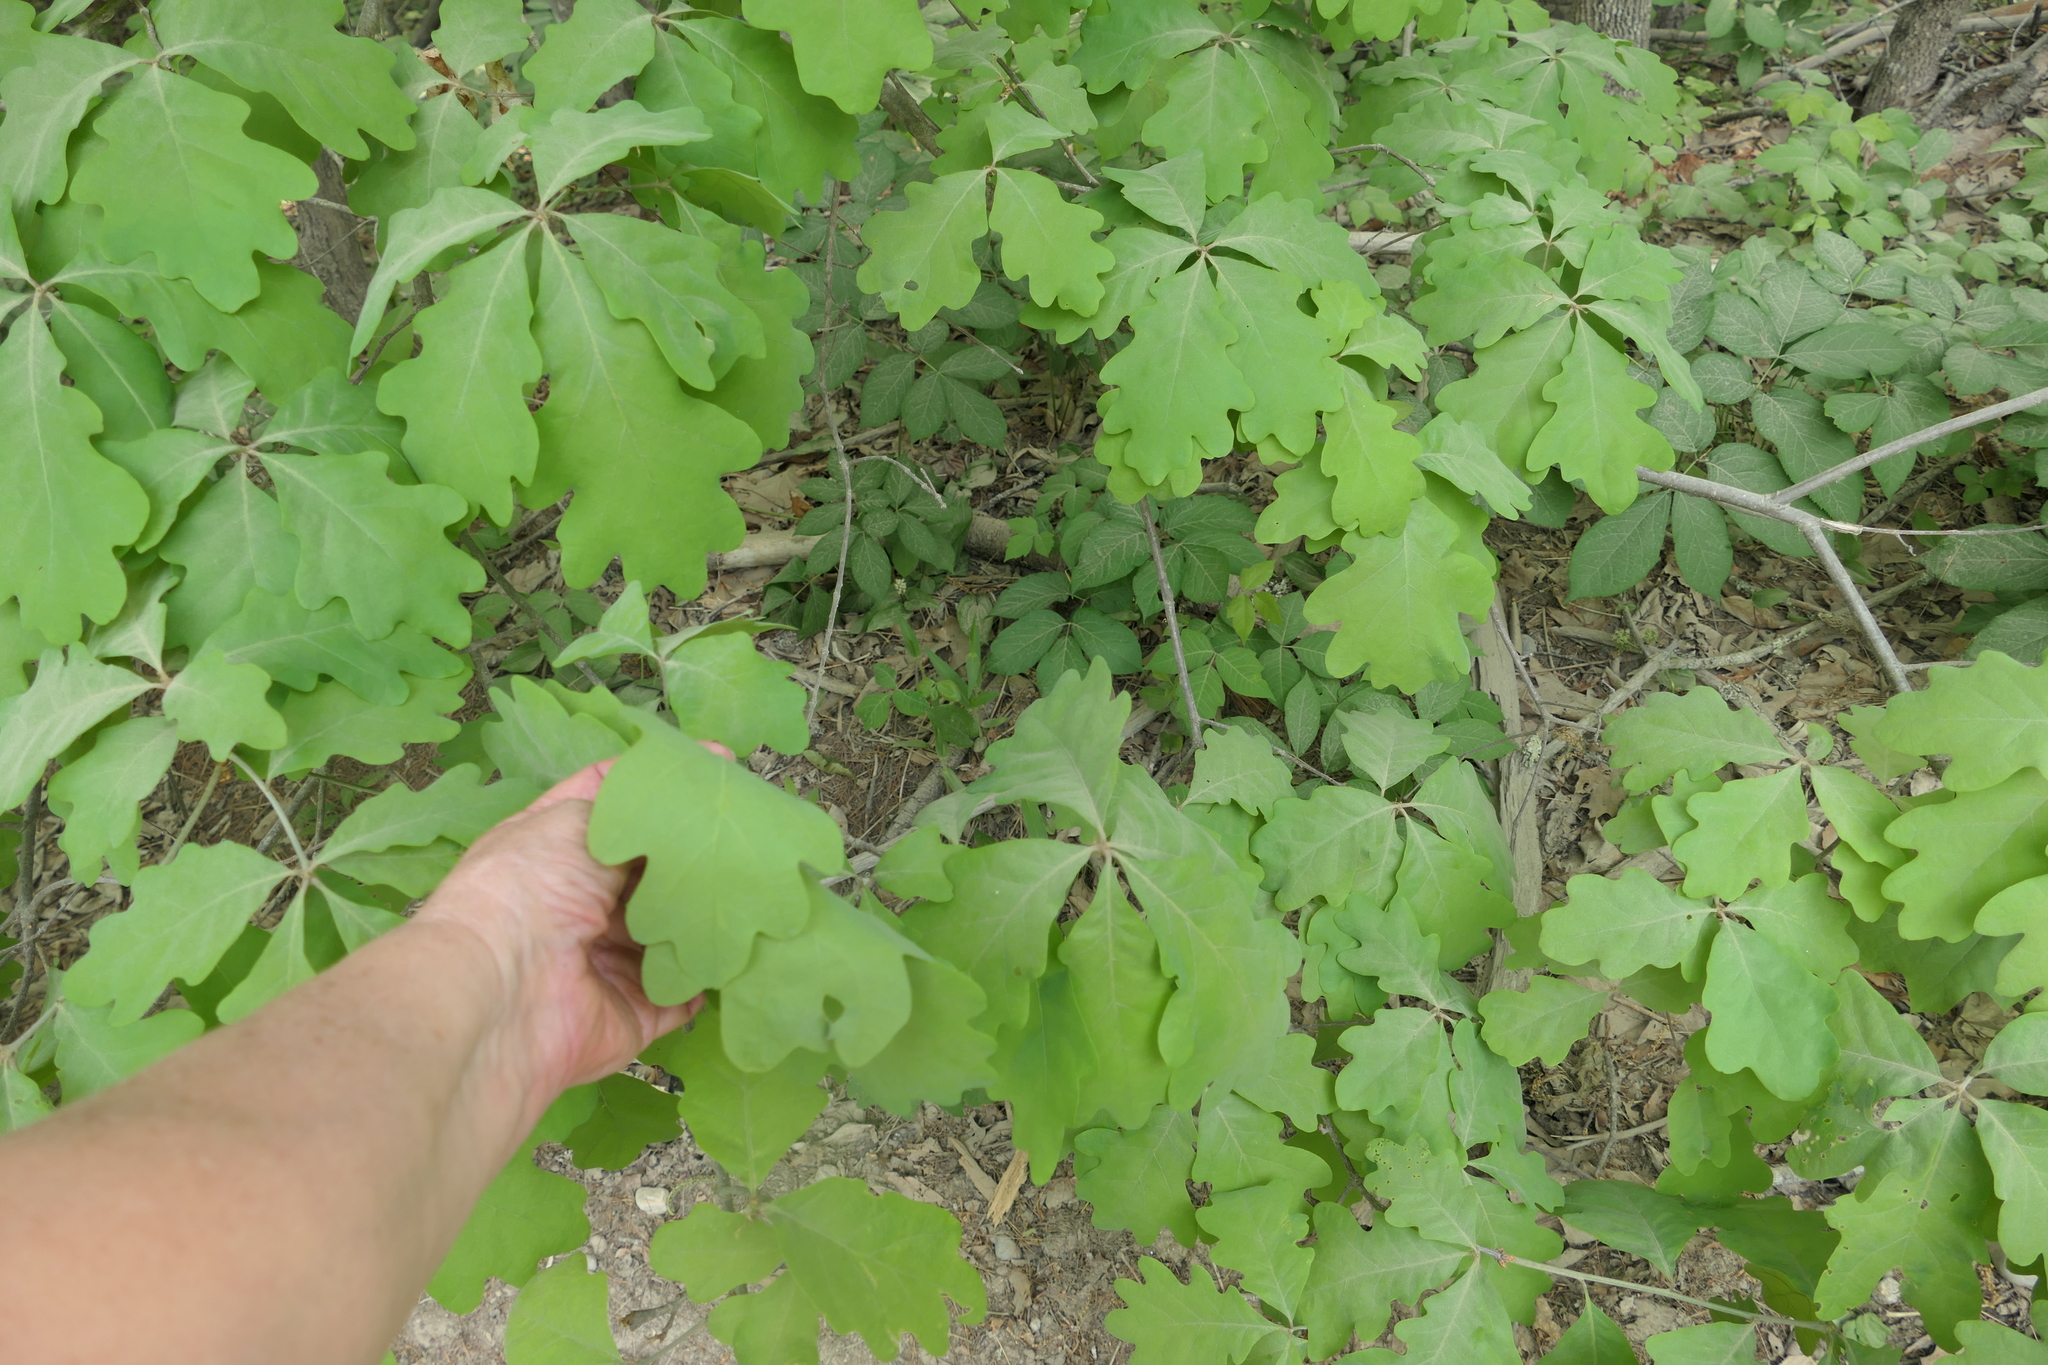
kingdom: Plantae
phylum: Tracheophyta
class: Magnoliopsida
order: Fagales
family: Fagaceae
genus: Quercus
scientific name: Quercus alba
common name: White oak
